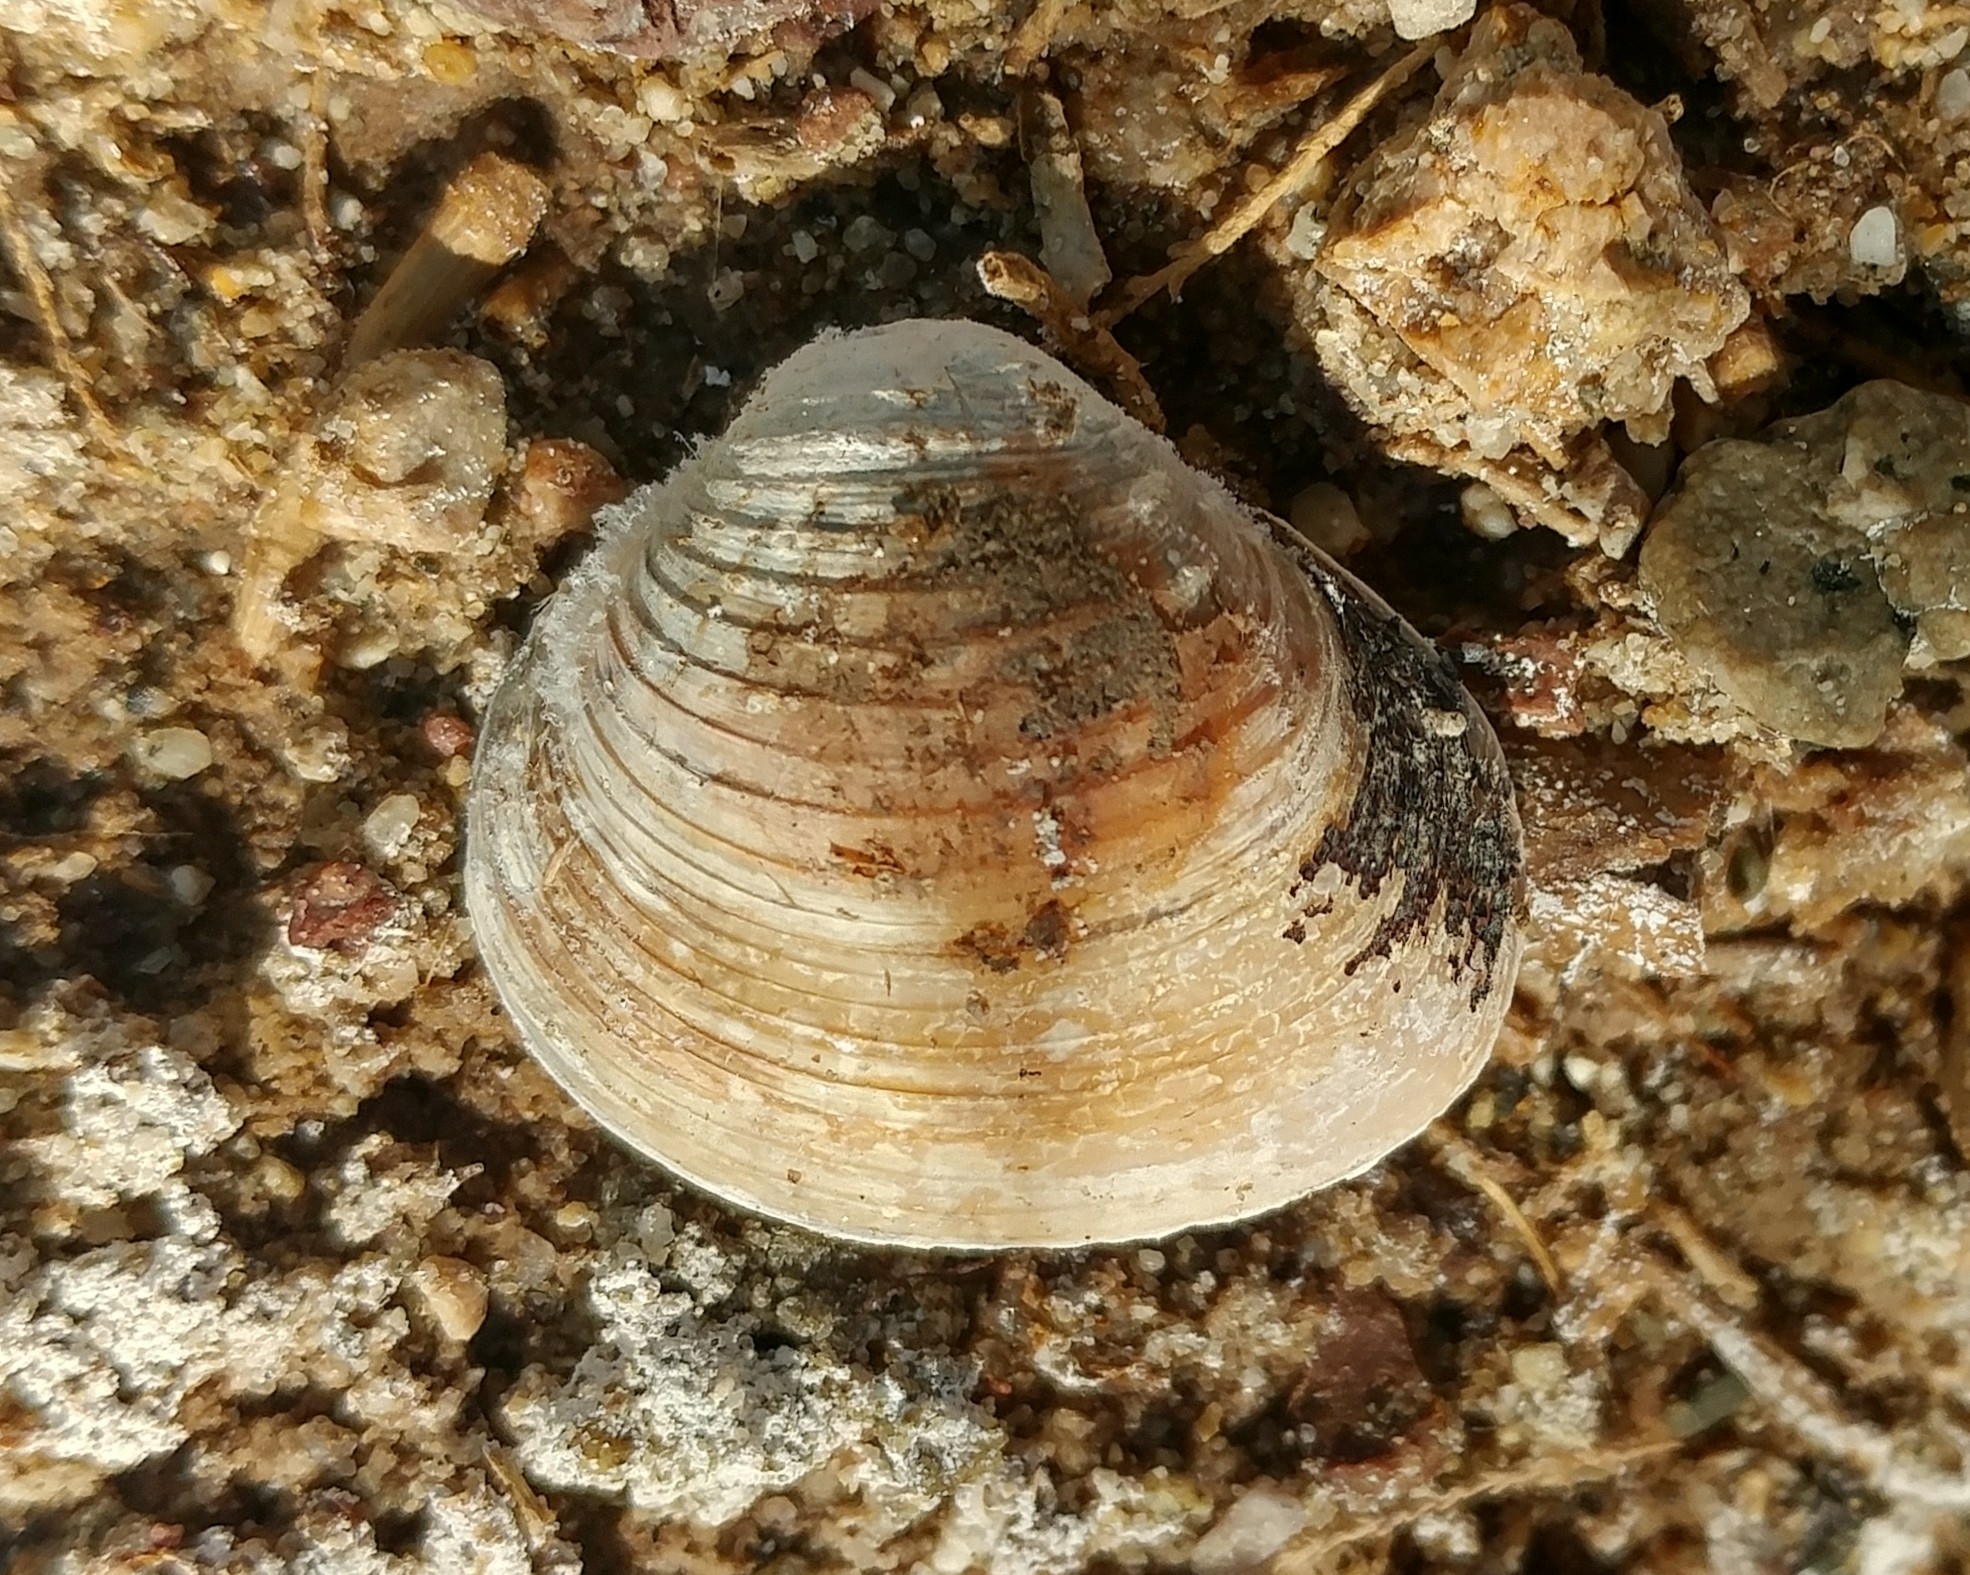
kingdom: Animalia
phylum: Mollusca
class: Bivalvia
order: Venerida
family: Cyrenidae
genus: Corbicula
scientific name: Corbicula fluminea
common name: Asian clam
